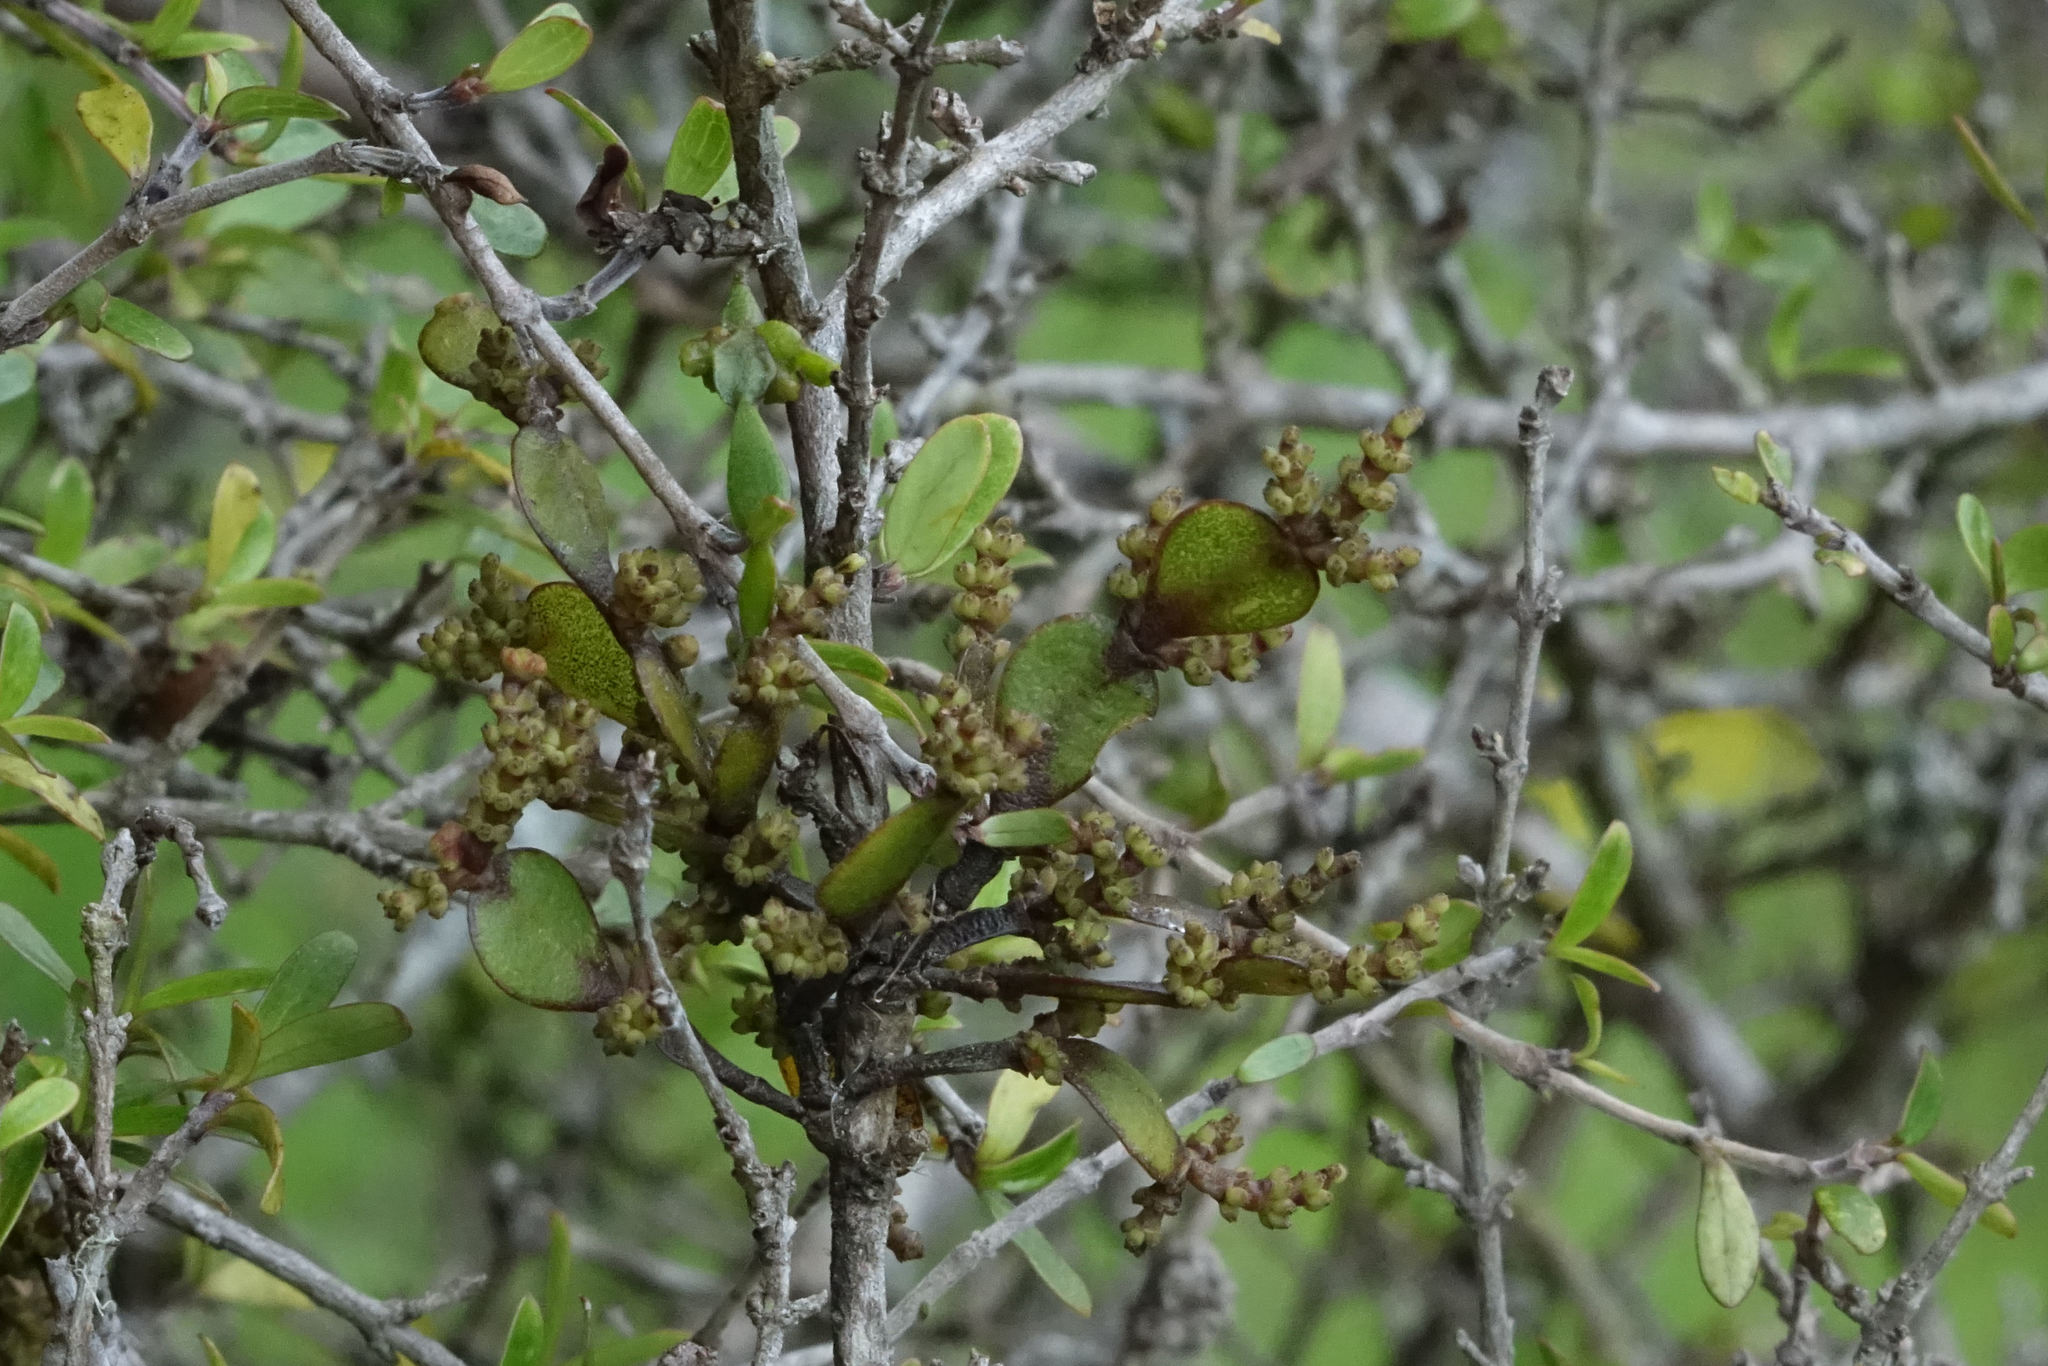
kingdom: Plantae
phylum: Tracheophyta
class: Magnoliopsida
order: Santalales
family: Viscaceae
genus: Korthalsella
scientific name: Korthalsella lindsayi
